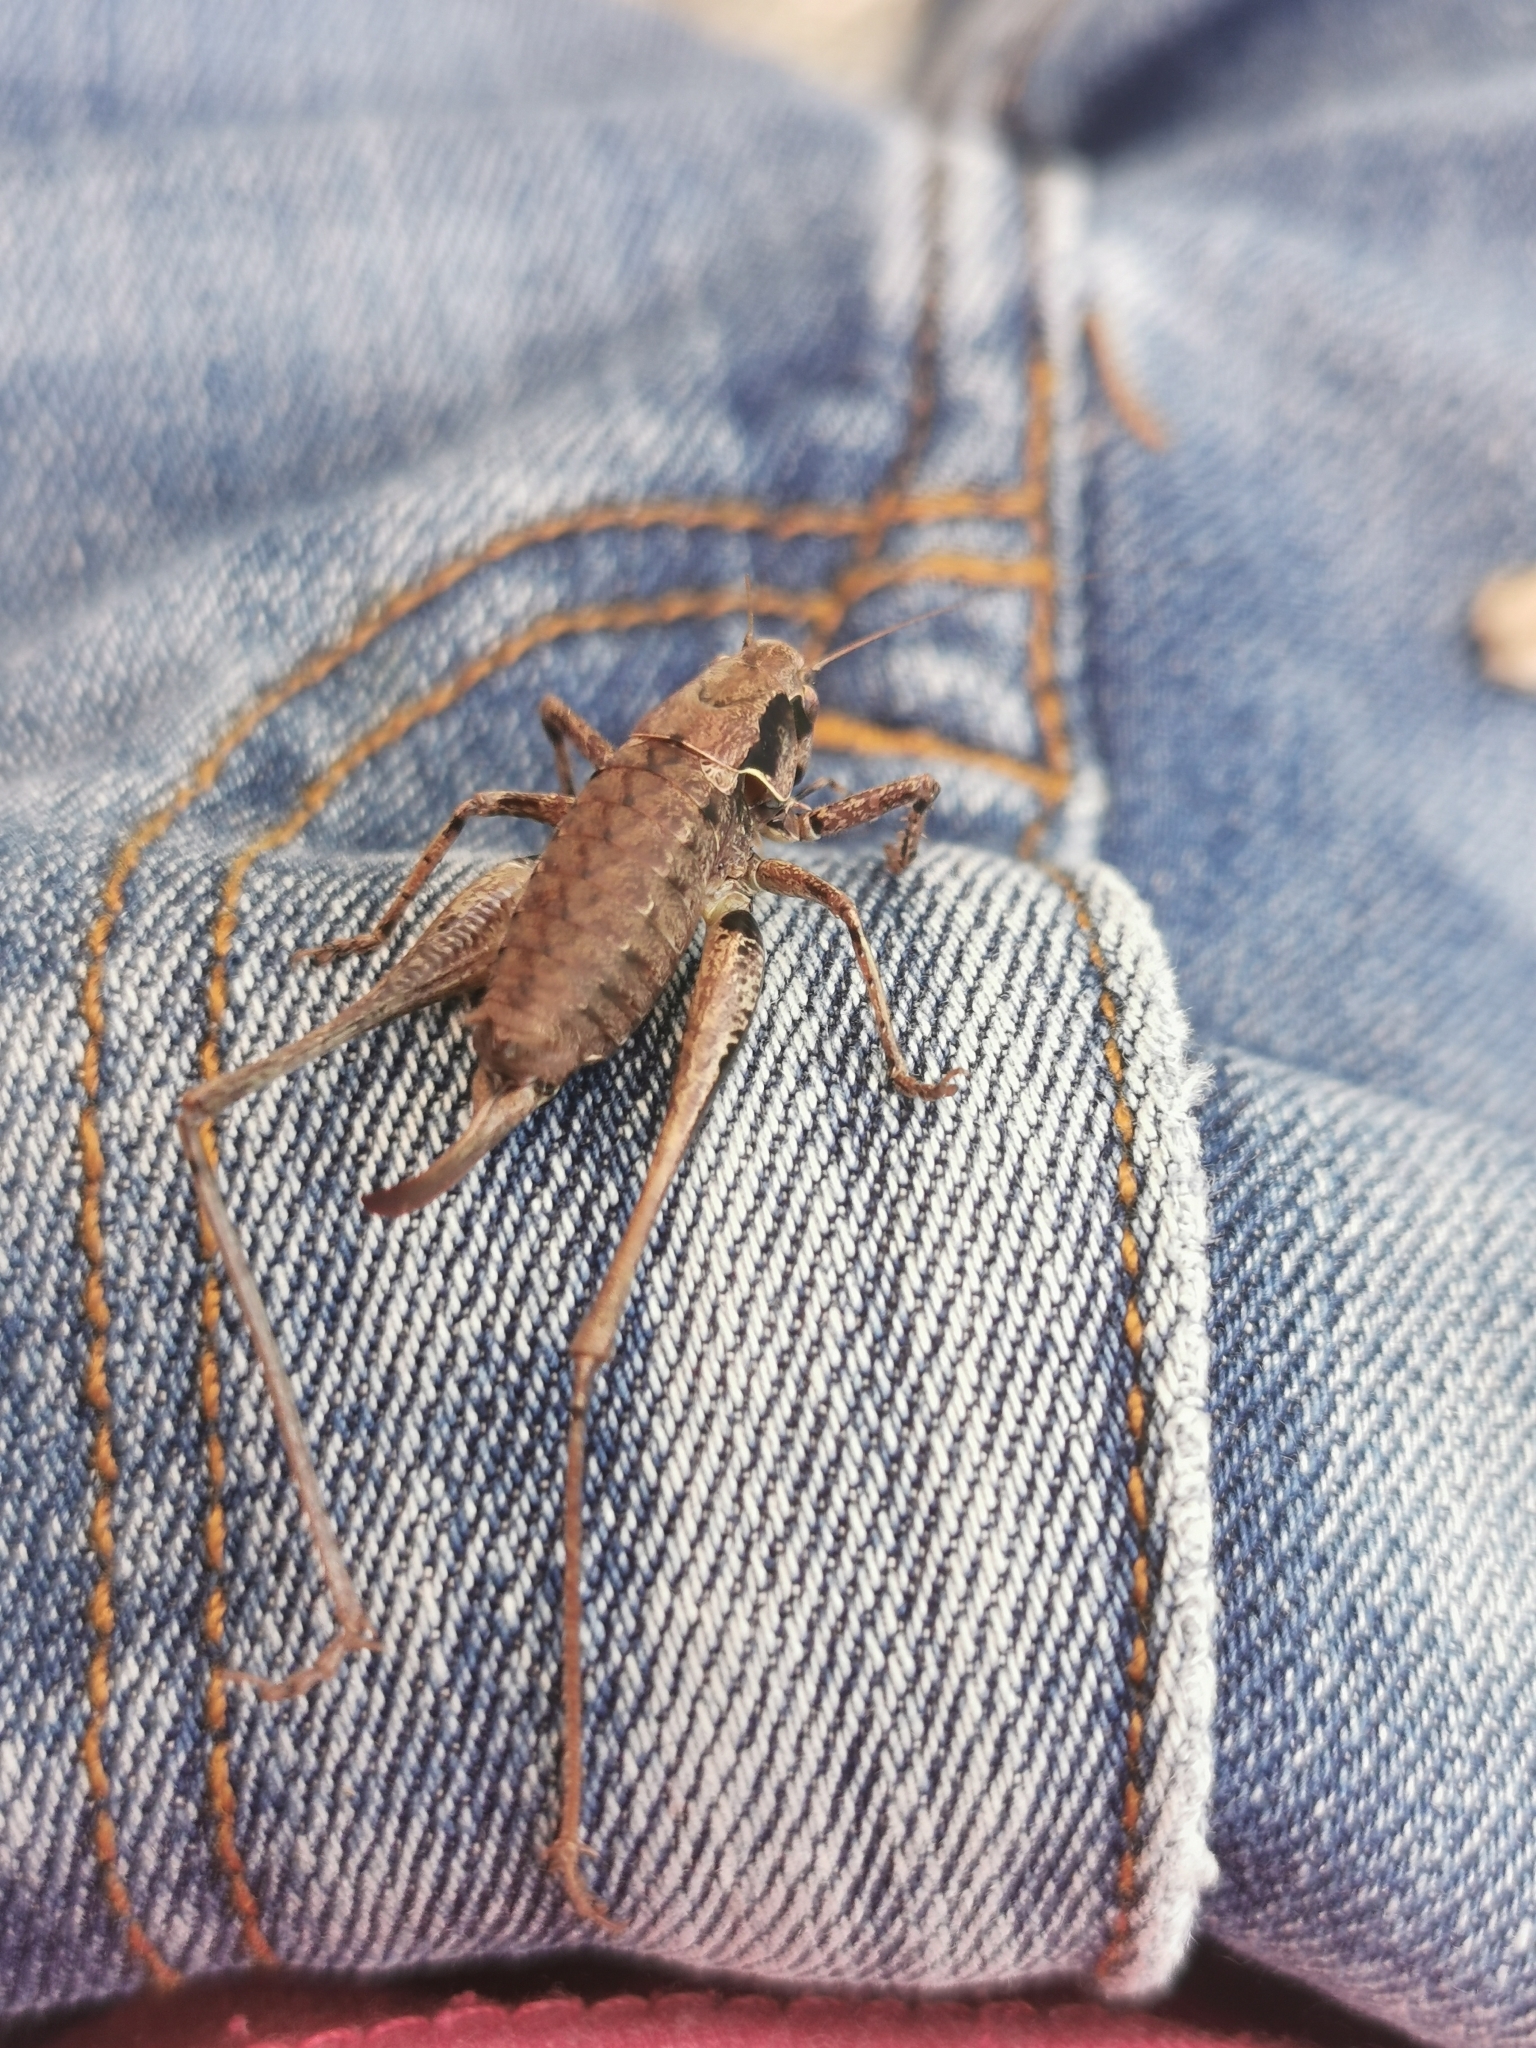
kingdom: Animalia
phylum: Arthropoda
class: Insecta
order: Orthoptera
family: Tettigoniidae
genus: Pholidoptera
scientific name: Pholidoptera griseoaptera
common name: Dark bush-cricket
